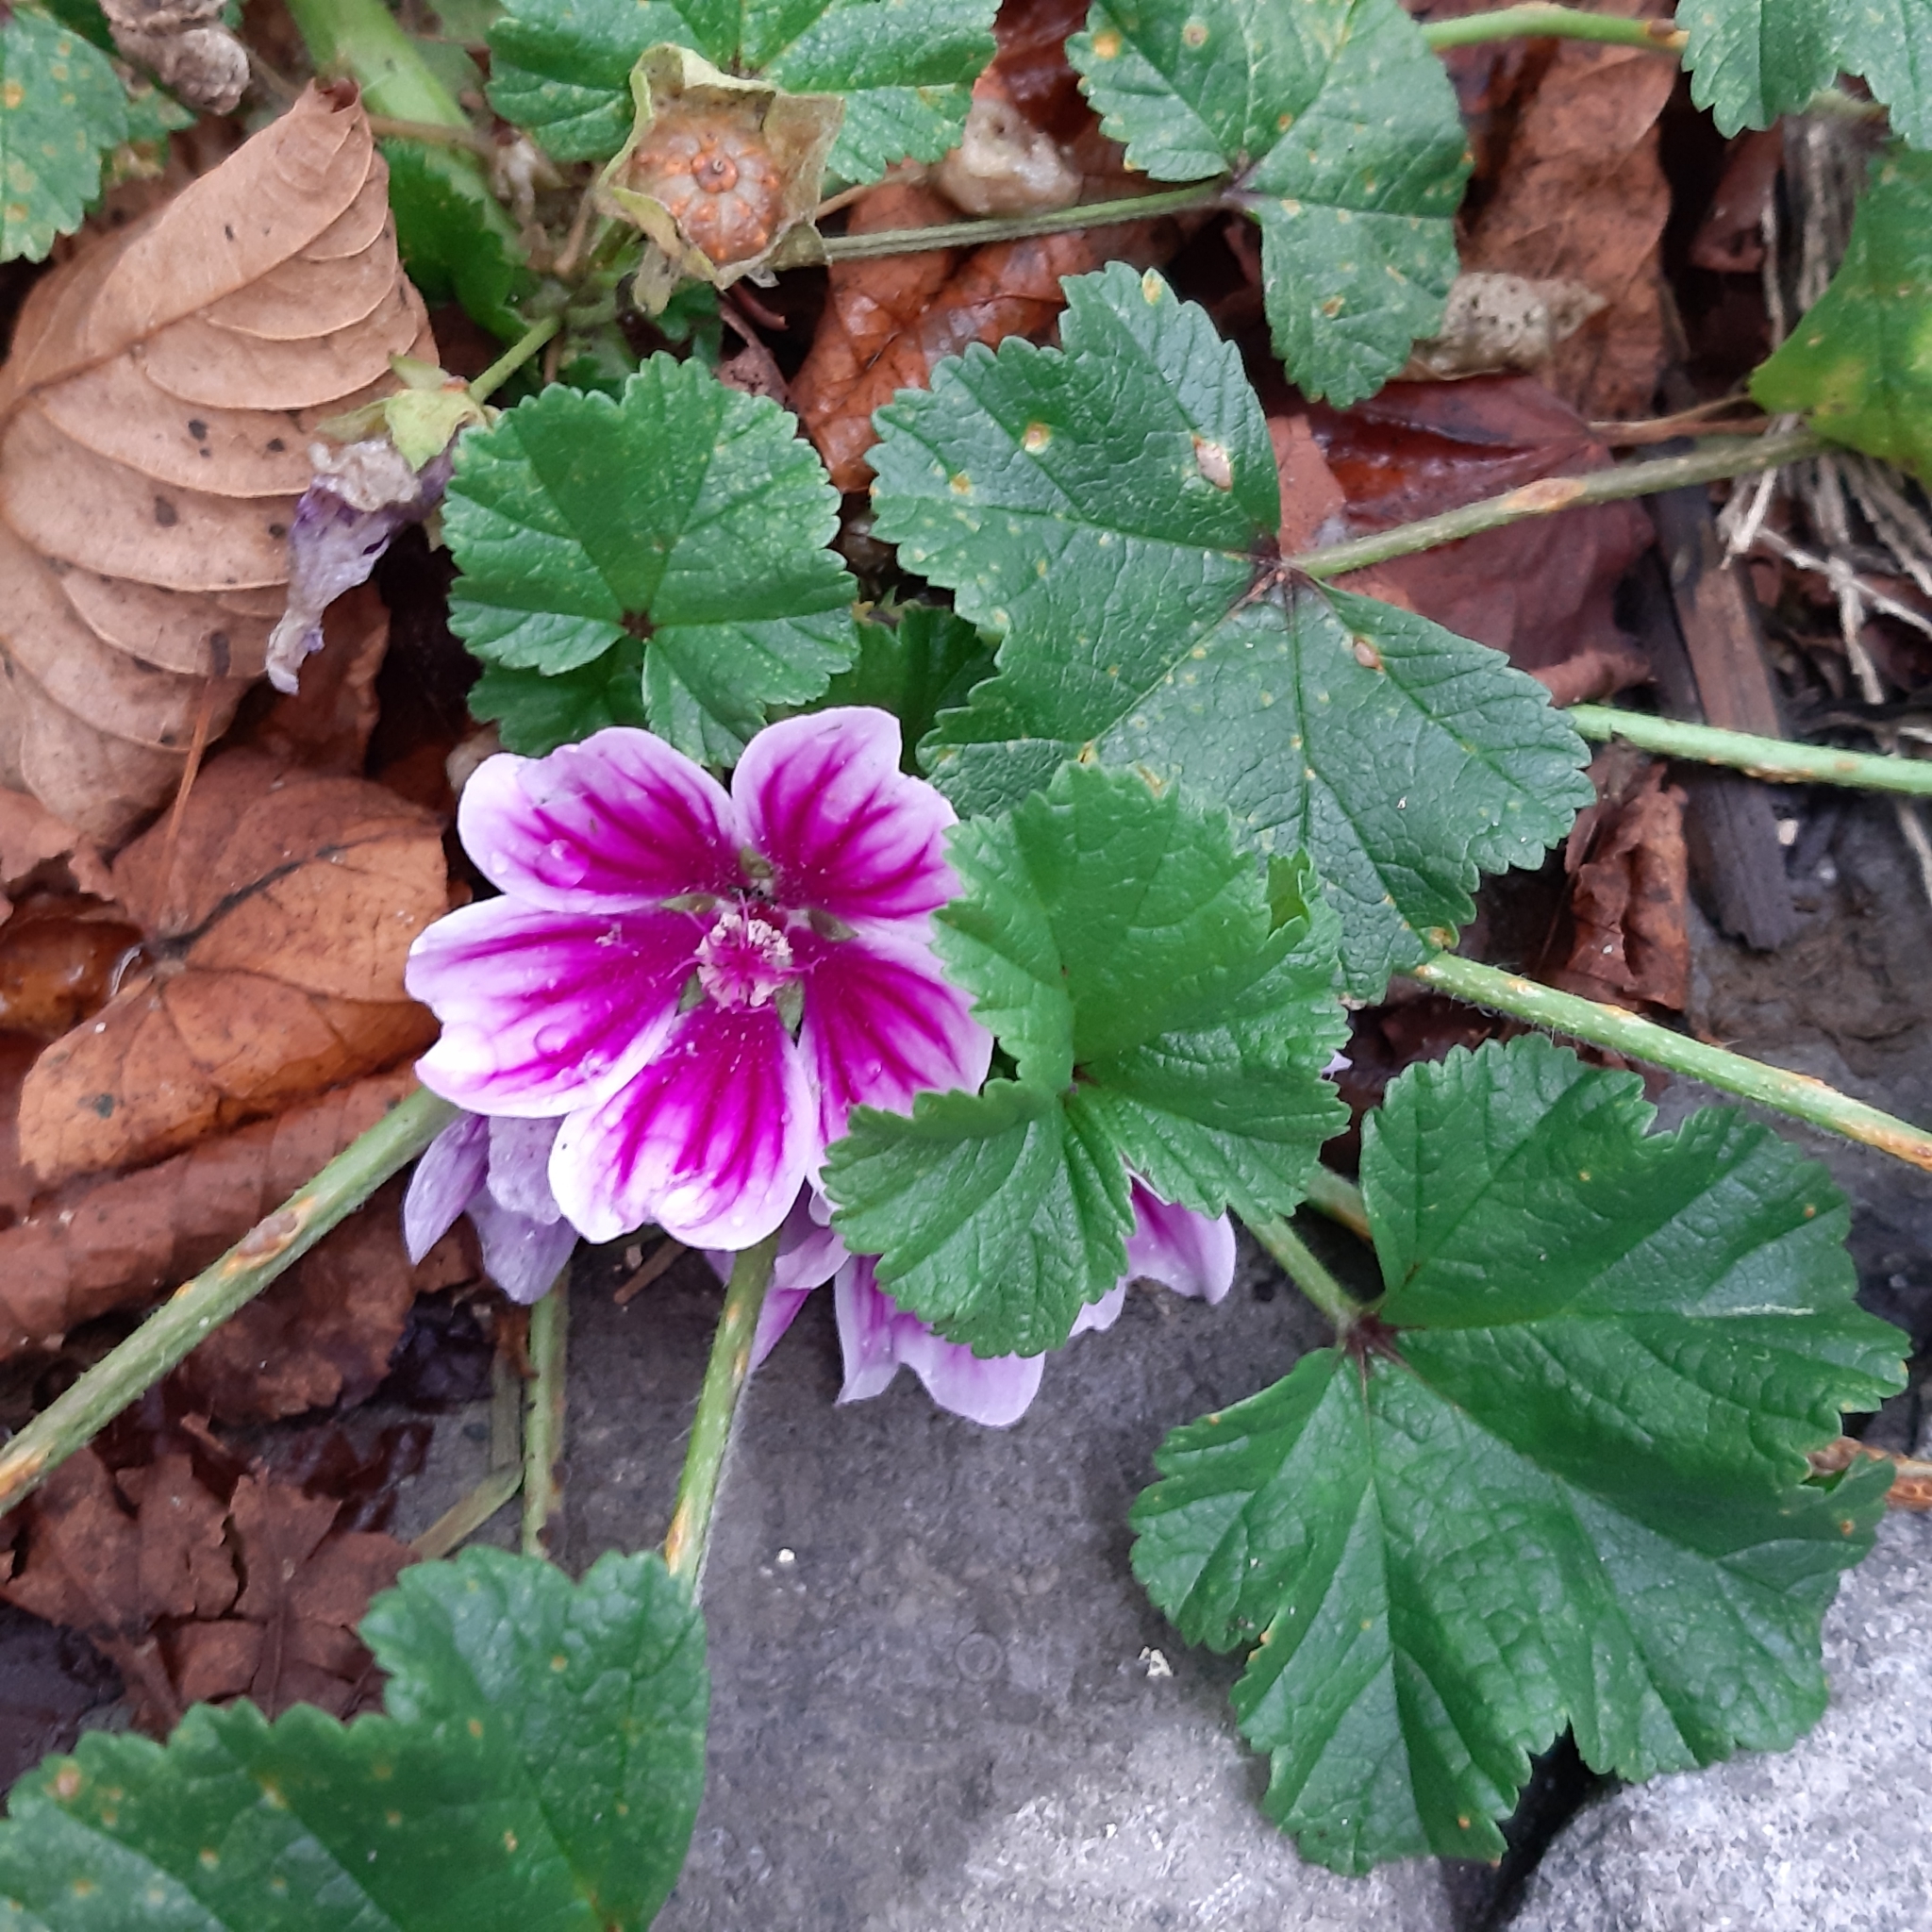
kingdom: Plantae
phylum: Tracheophyta
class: Magnoliopsida
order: Malvales
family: Malvaceae
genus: Malva
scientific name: Malva sylvestris
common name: Common mallow
